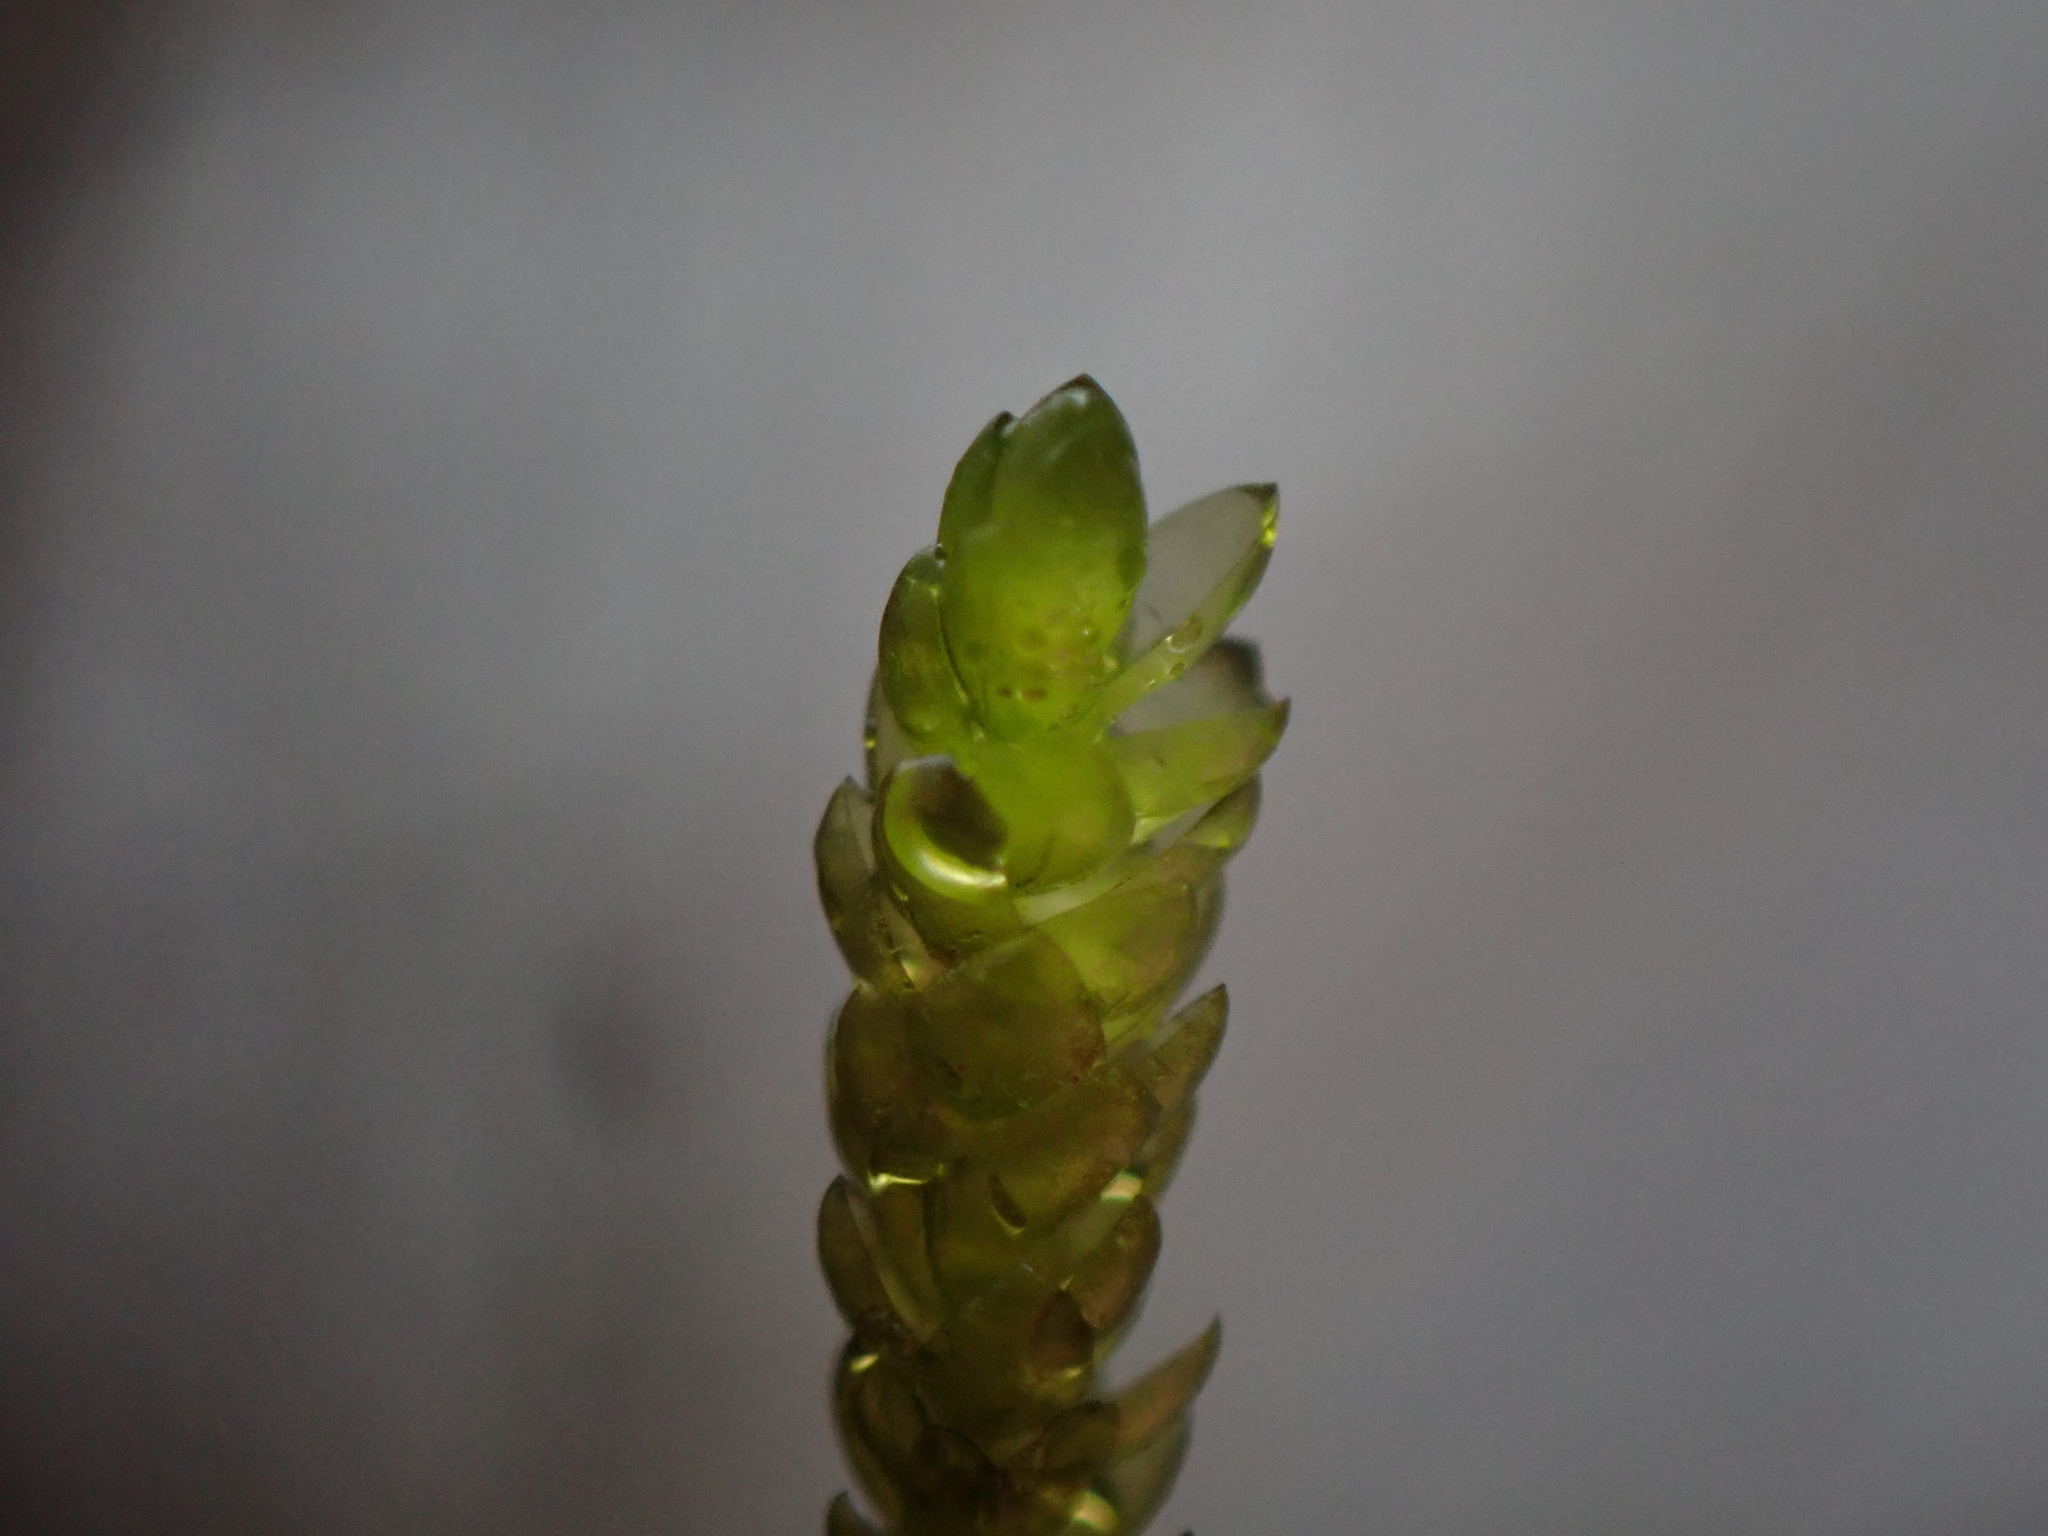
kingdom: Plantae
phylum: Bryophyta
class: Bryopsida
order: Hypnales
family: Brachytheciaceae
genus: Scleropodium
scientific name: Scleropodium obtusifolium
